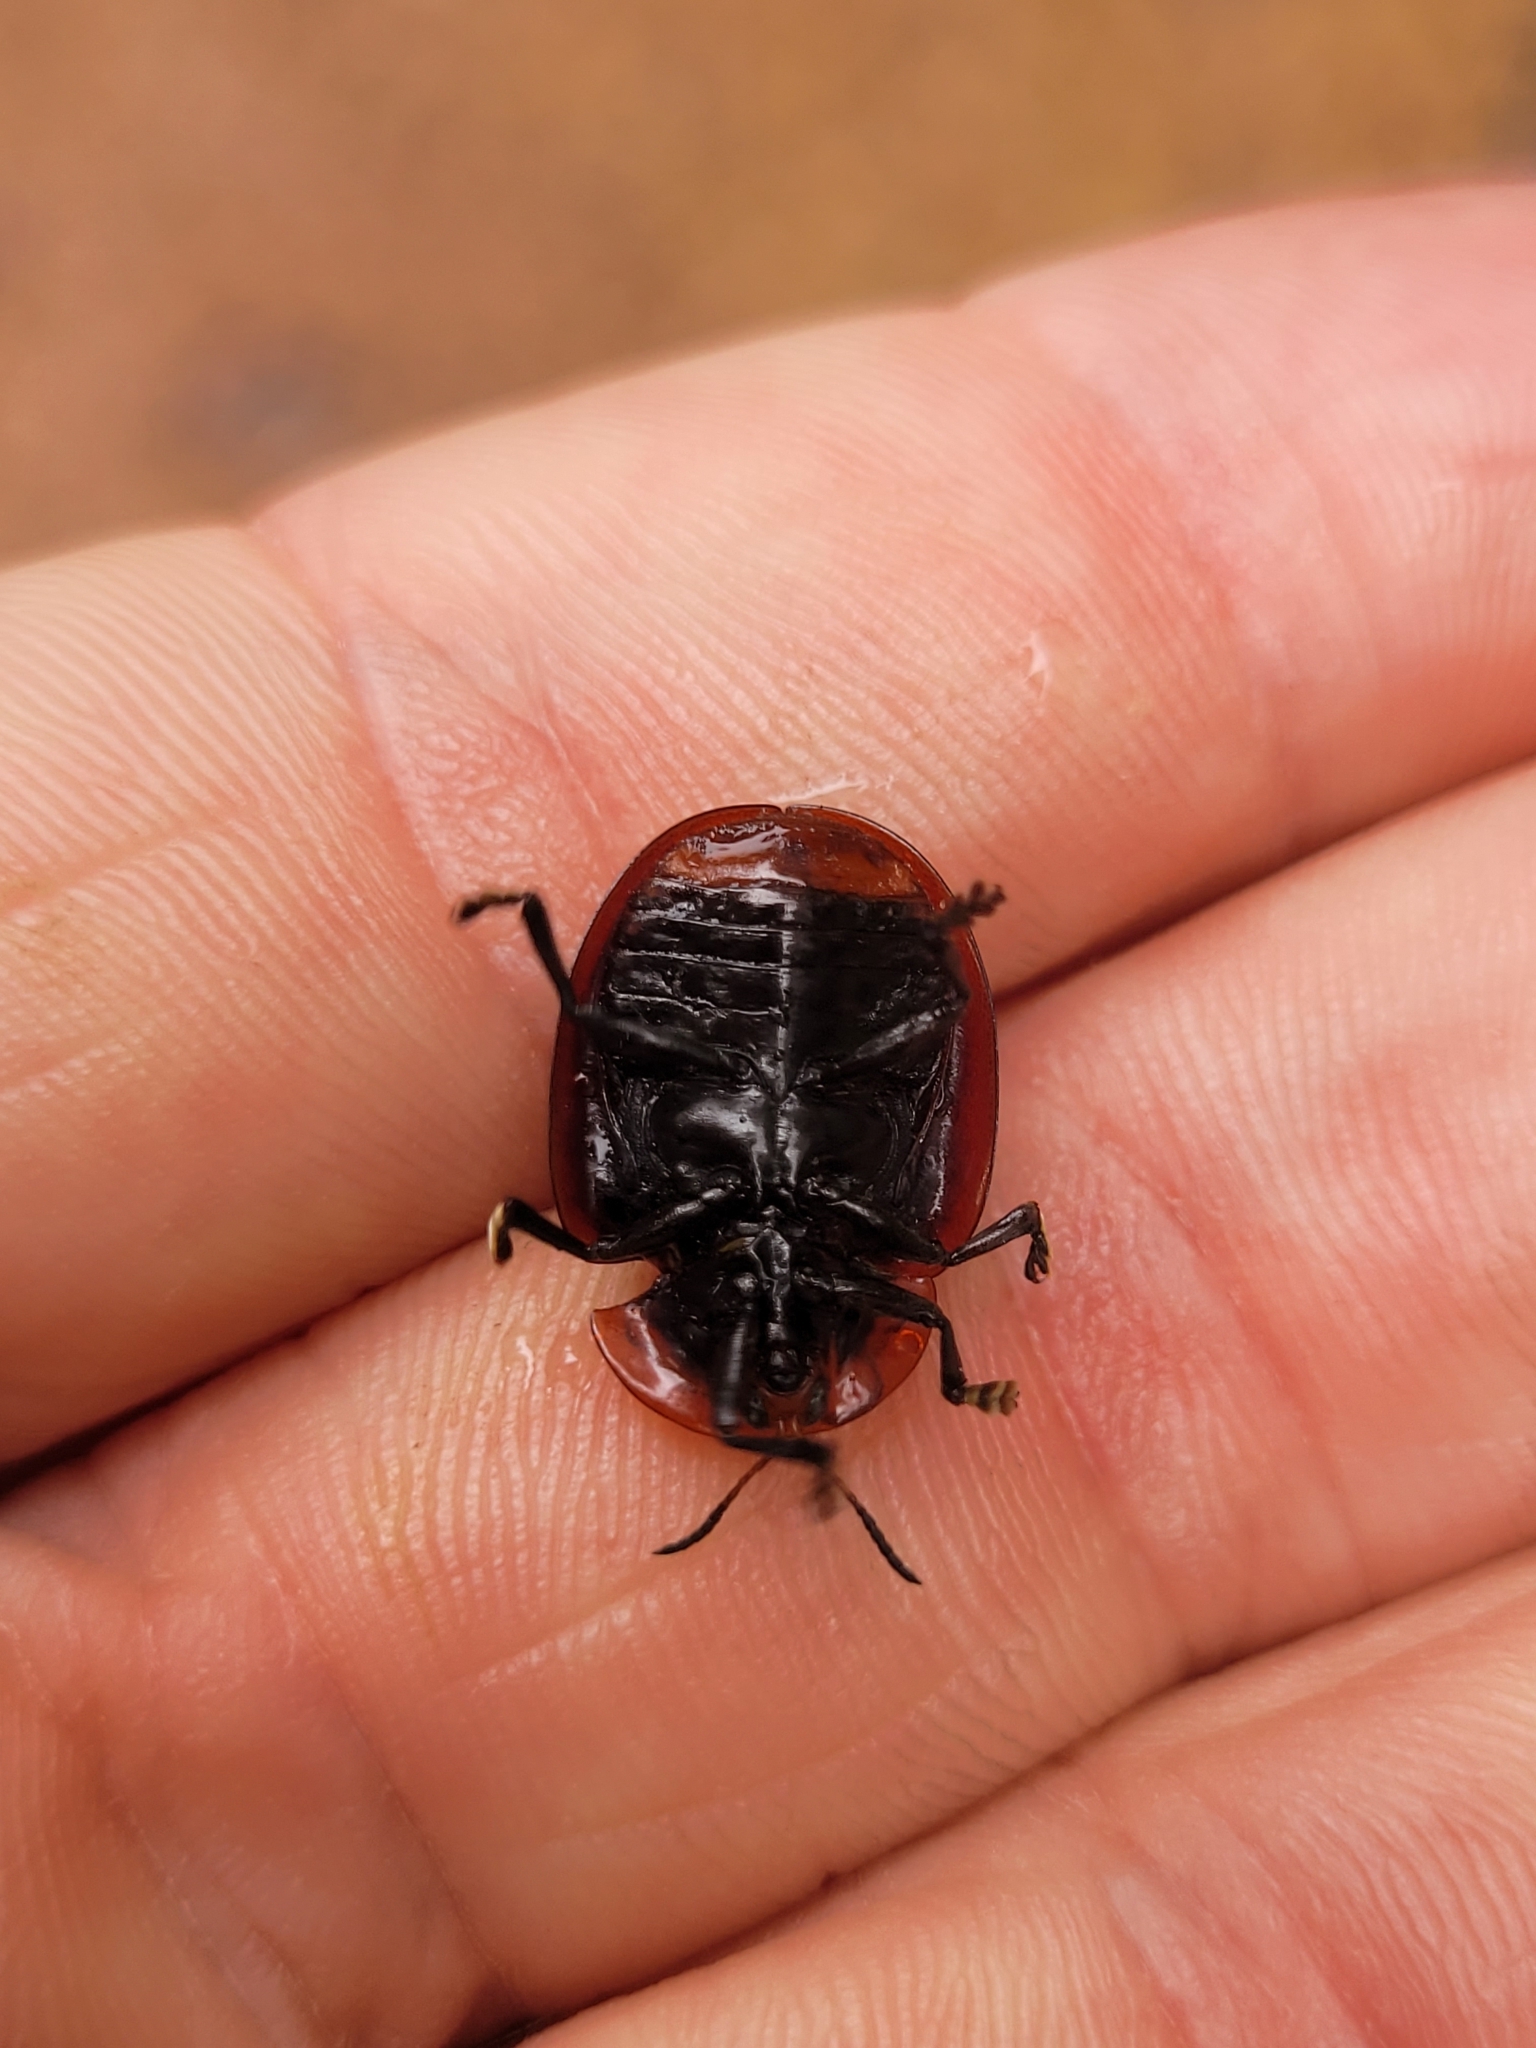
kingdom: Animalia
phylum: Arthropoda
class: Insecta
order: Coleoptera
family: Chrysomelidae
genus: Conchyloctenia
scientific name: Conchyloctenia hepatica
